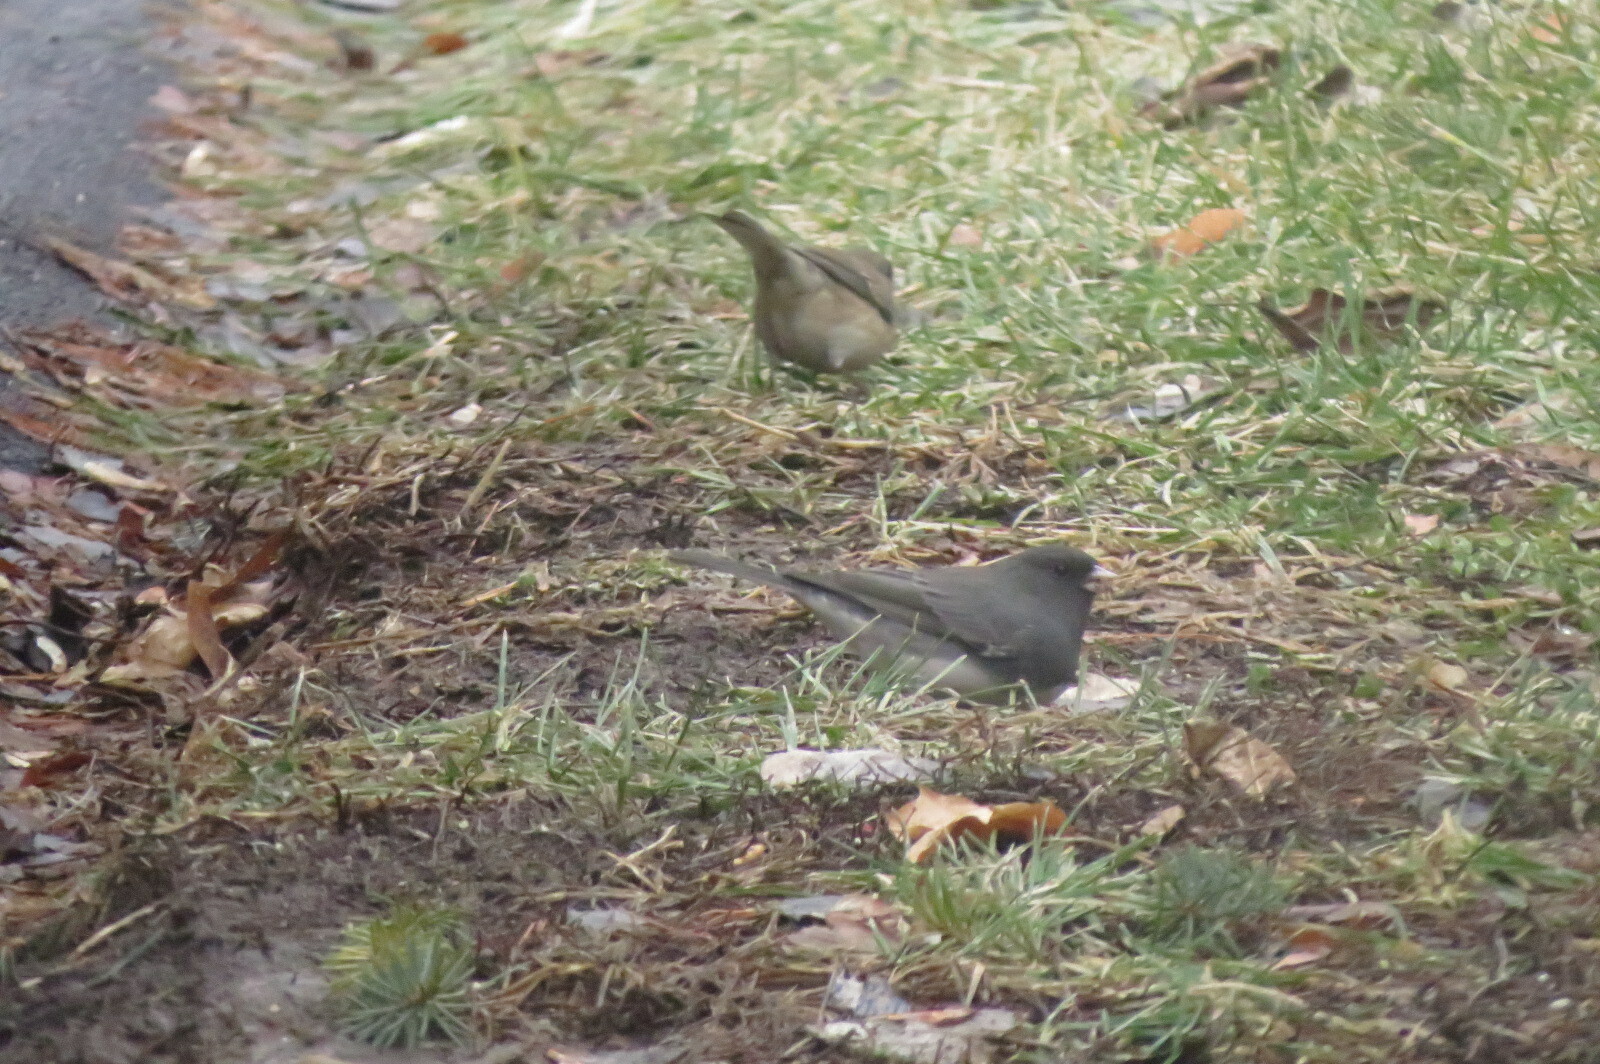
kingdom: Animalia
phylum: Chordata
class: Aves
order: Passeriformes
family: Passerellidae
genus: Junco
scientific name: Junco hyemalis
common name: Dark-eyed junco
